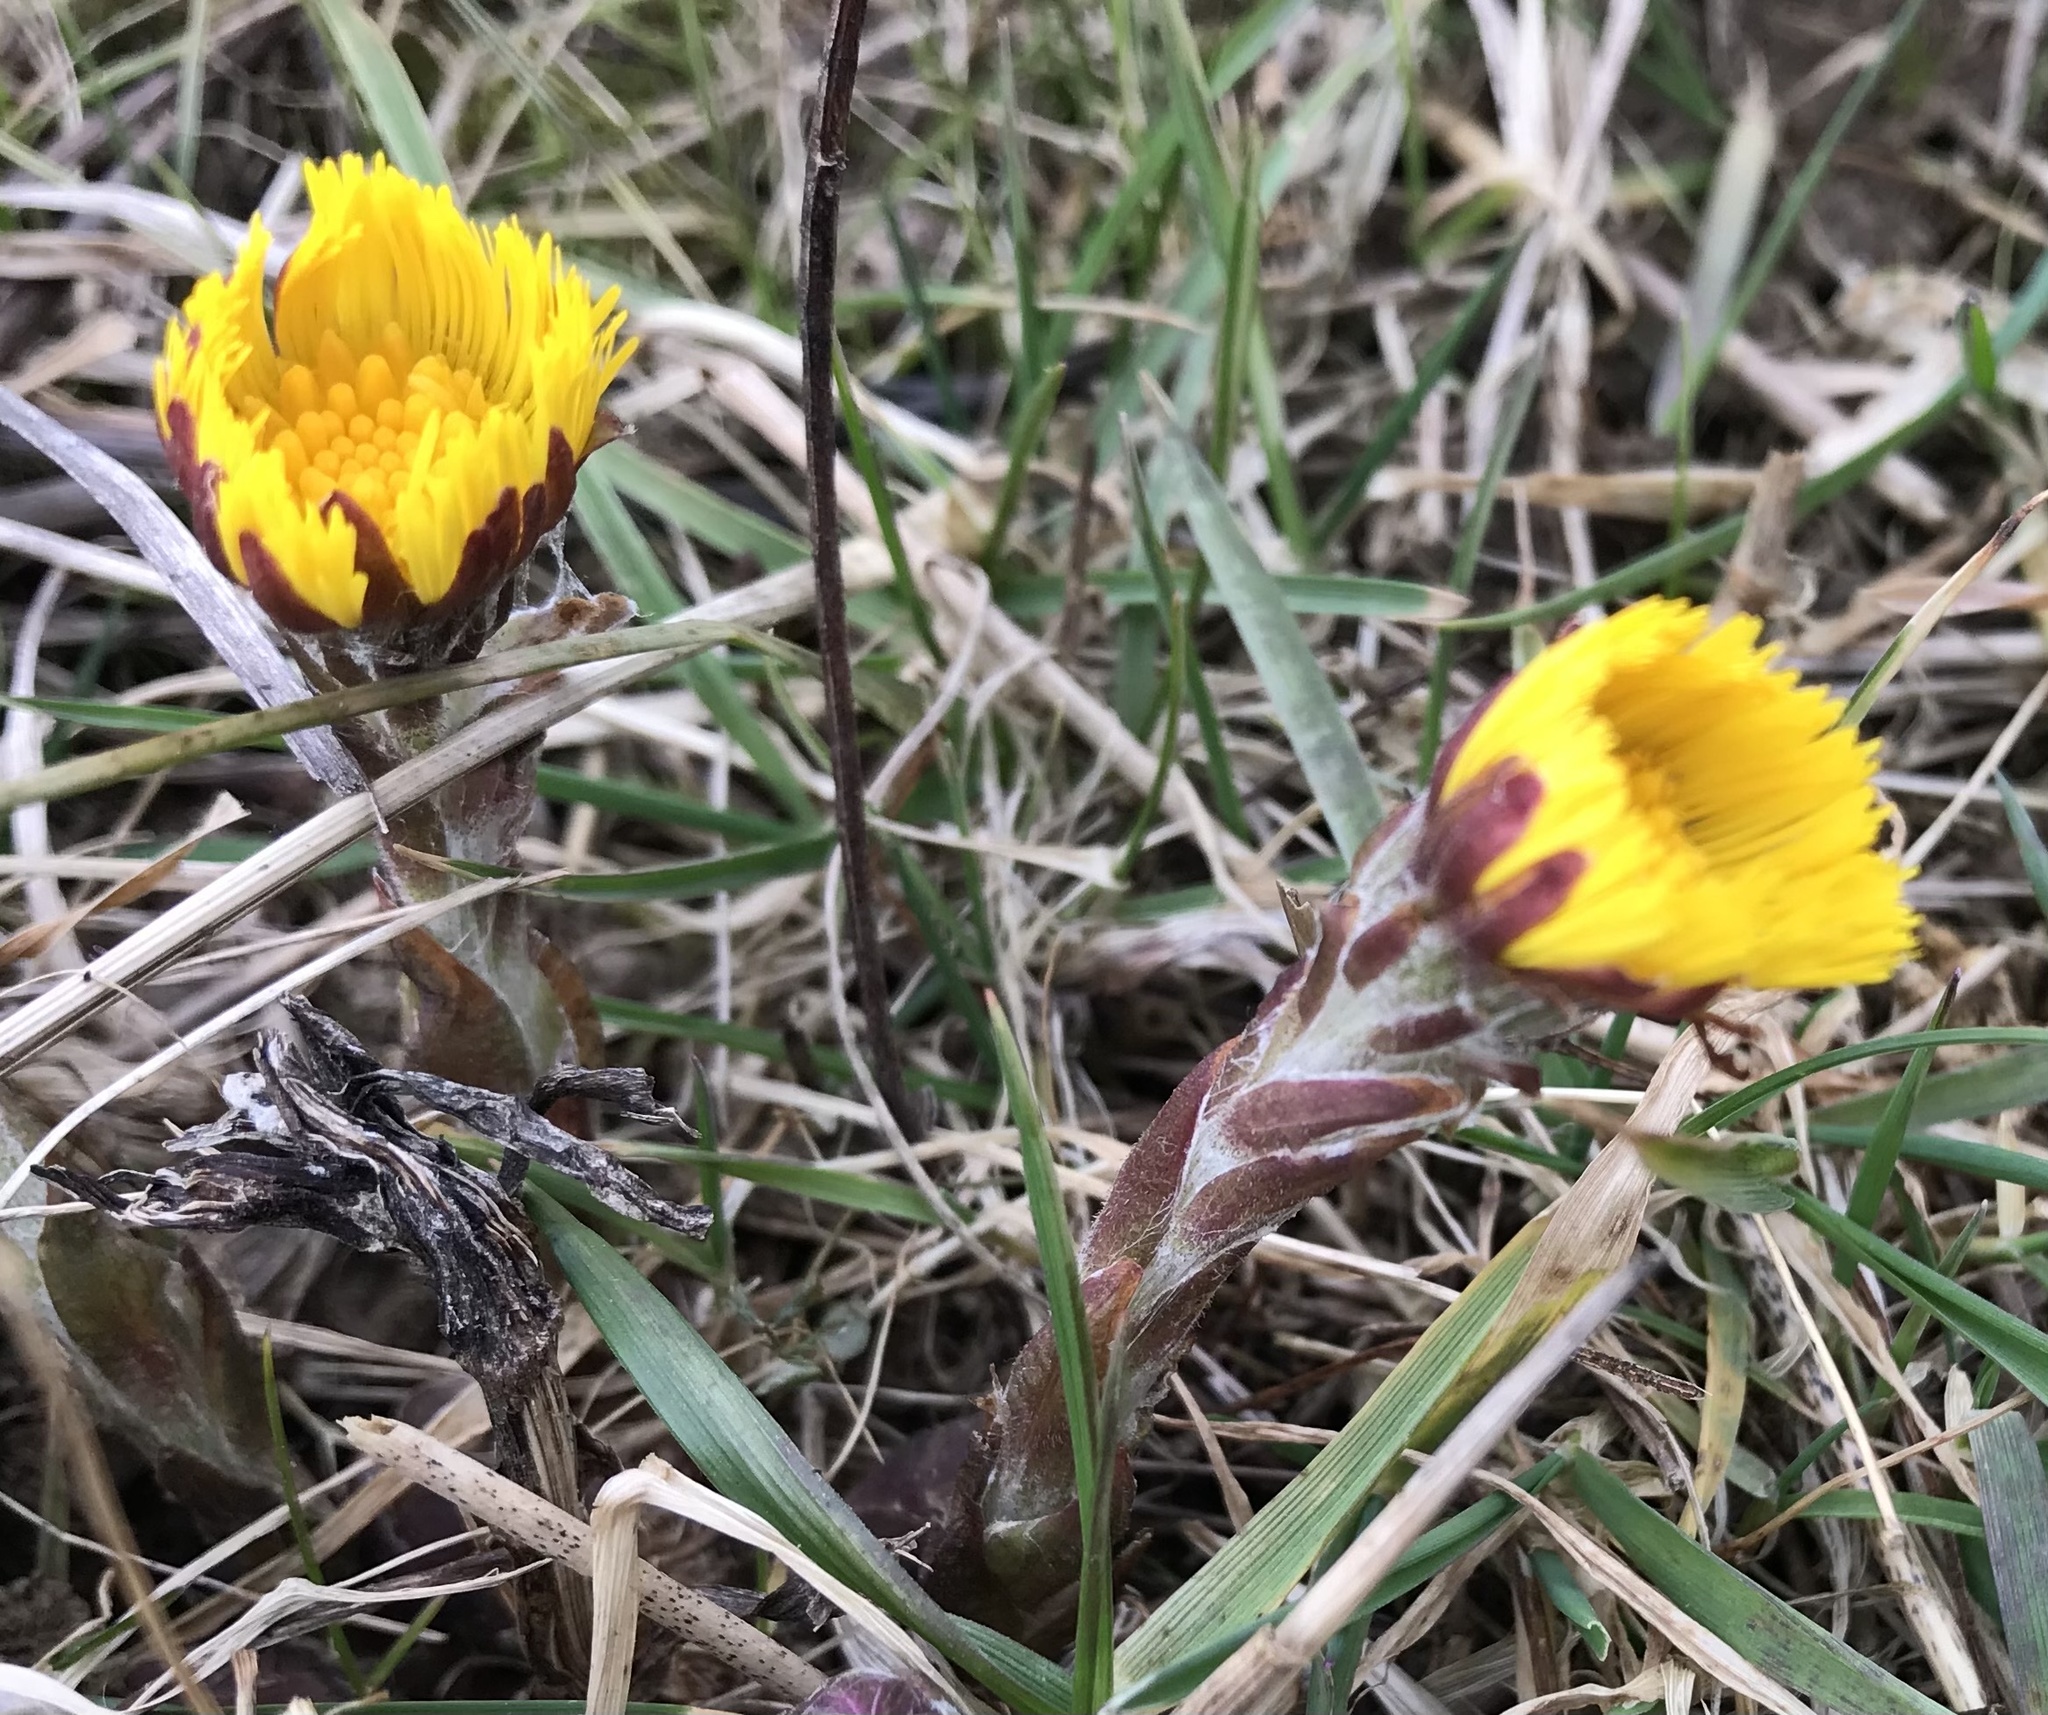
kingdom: Plantae
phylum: Tracheophyta
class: Magnoliopsida
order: Asterales
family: Asteraceae
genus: Tussilago
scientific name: Tussilago farfara
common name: Coltsfoot
